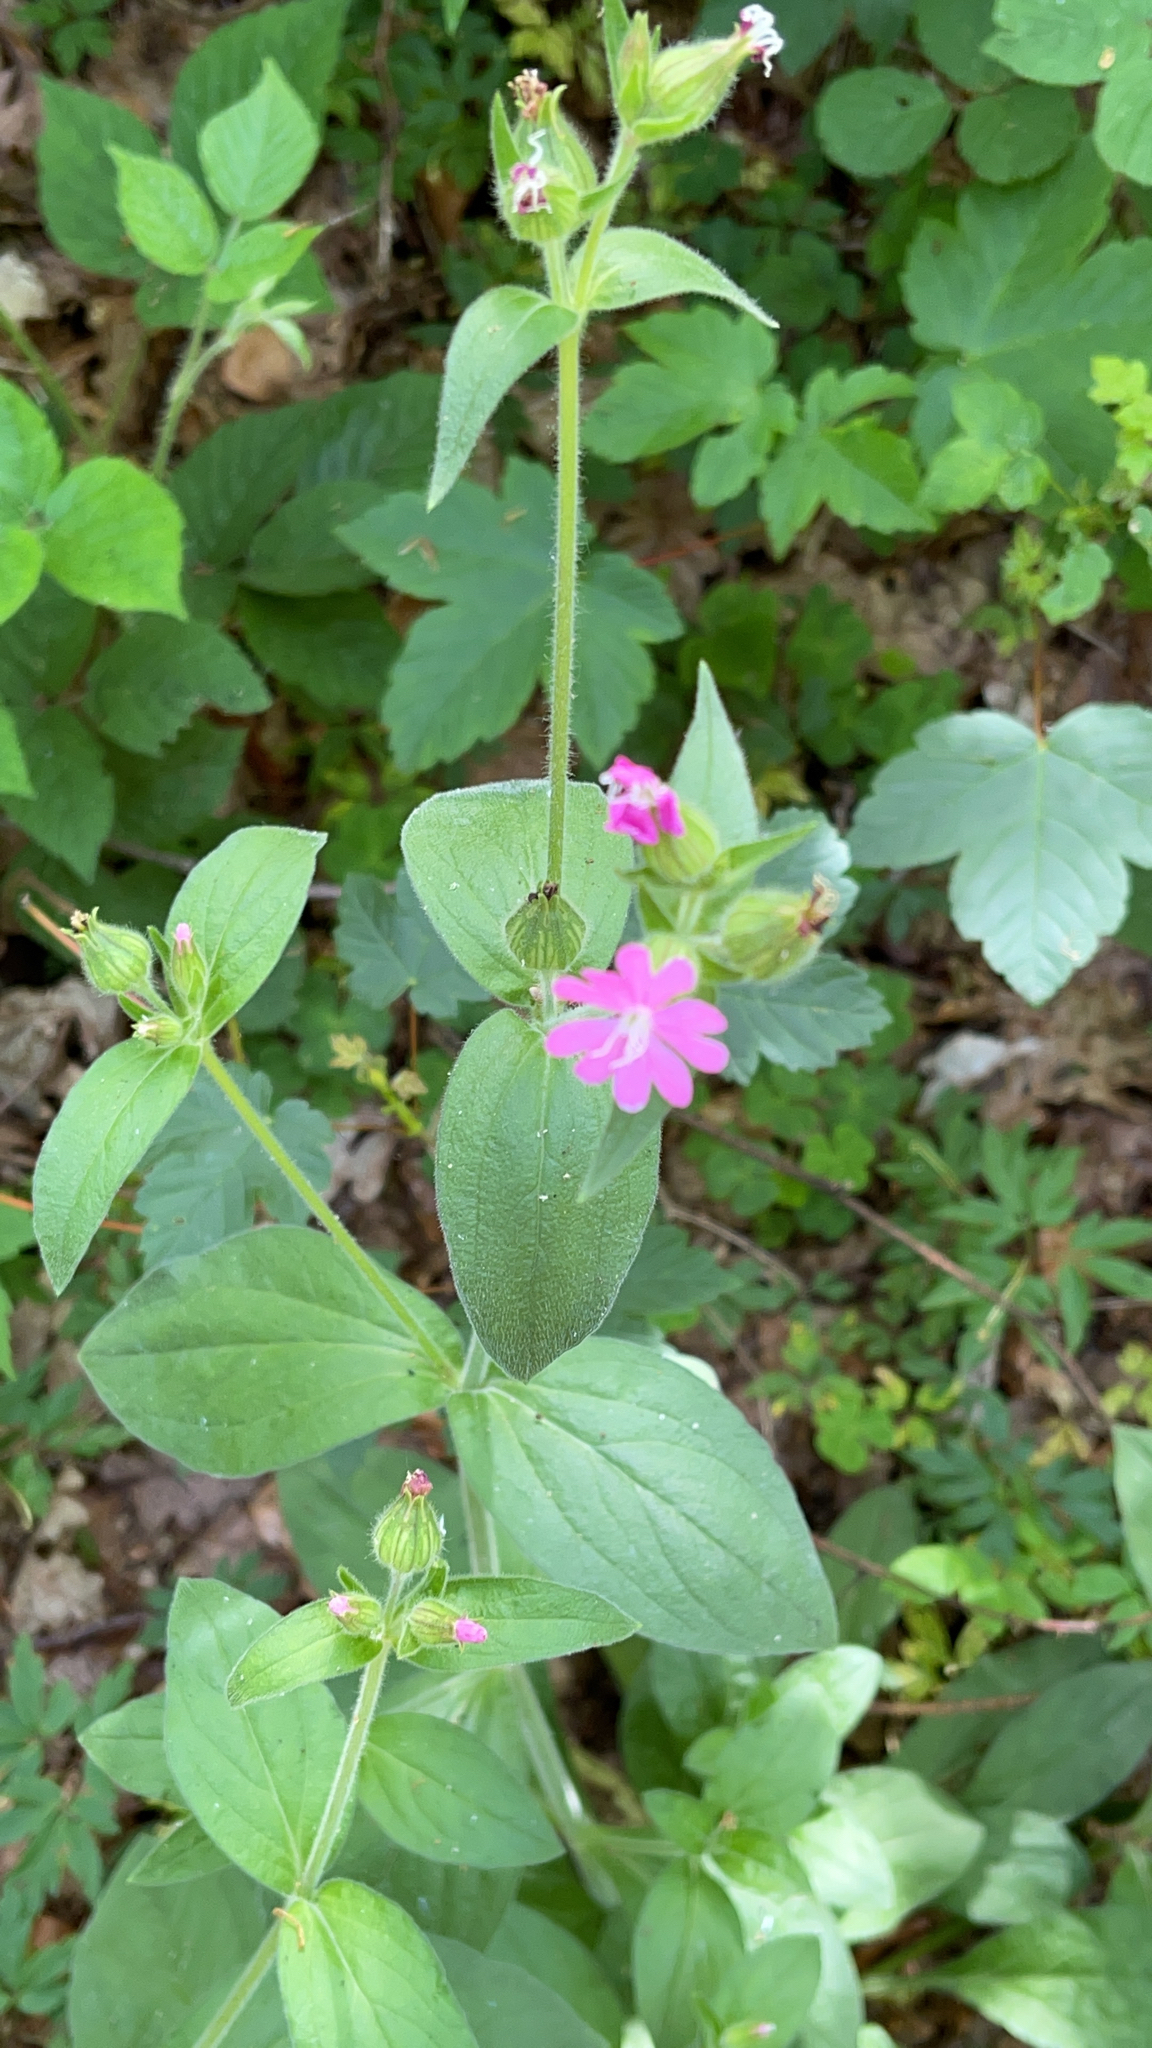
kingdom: Plantae
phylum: Tracheophyta
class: Magnoliopsida
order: Caryophyllales
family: Caryophyllaceae
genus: Silene
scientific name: Silene dioica
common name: Red campion
